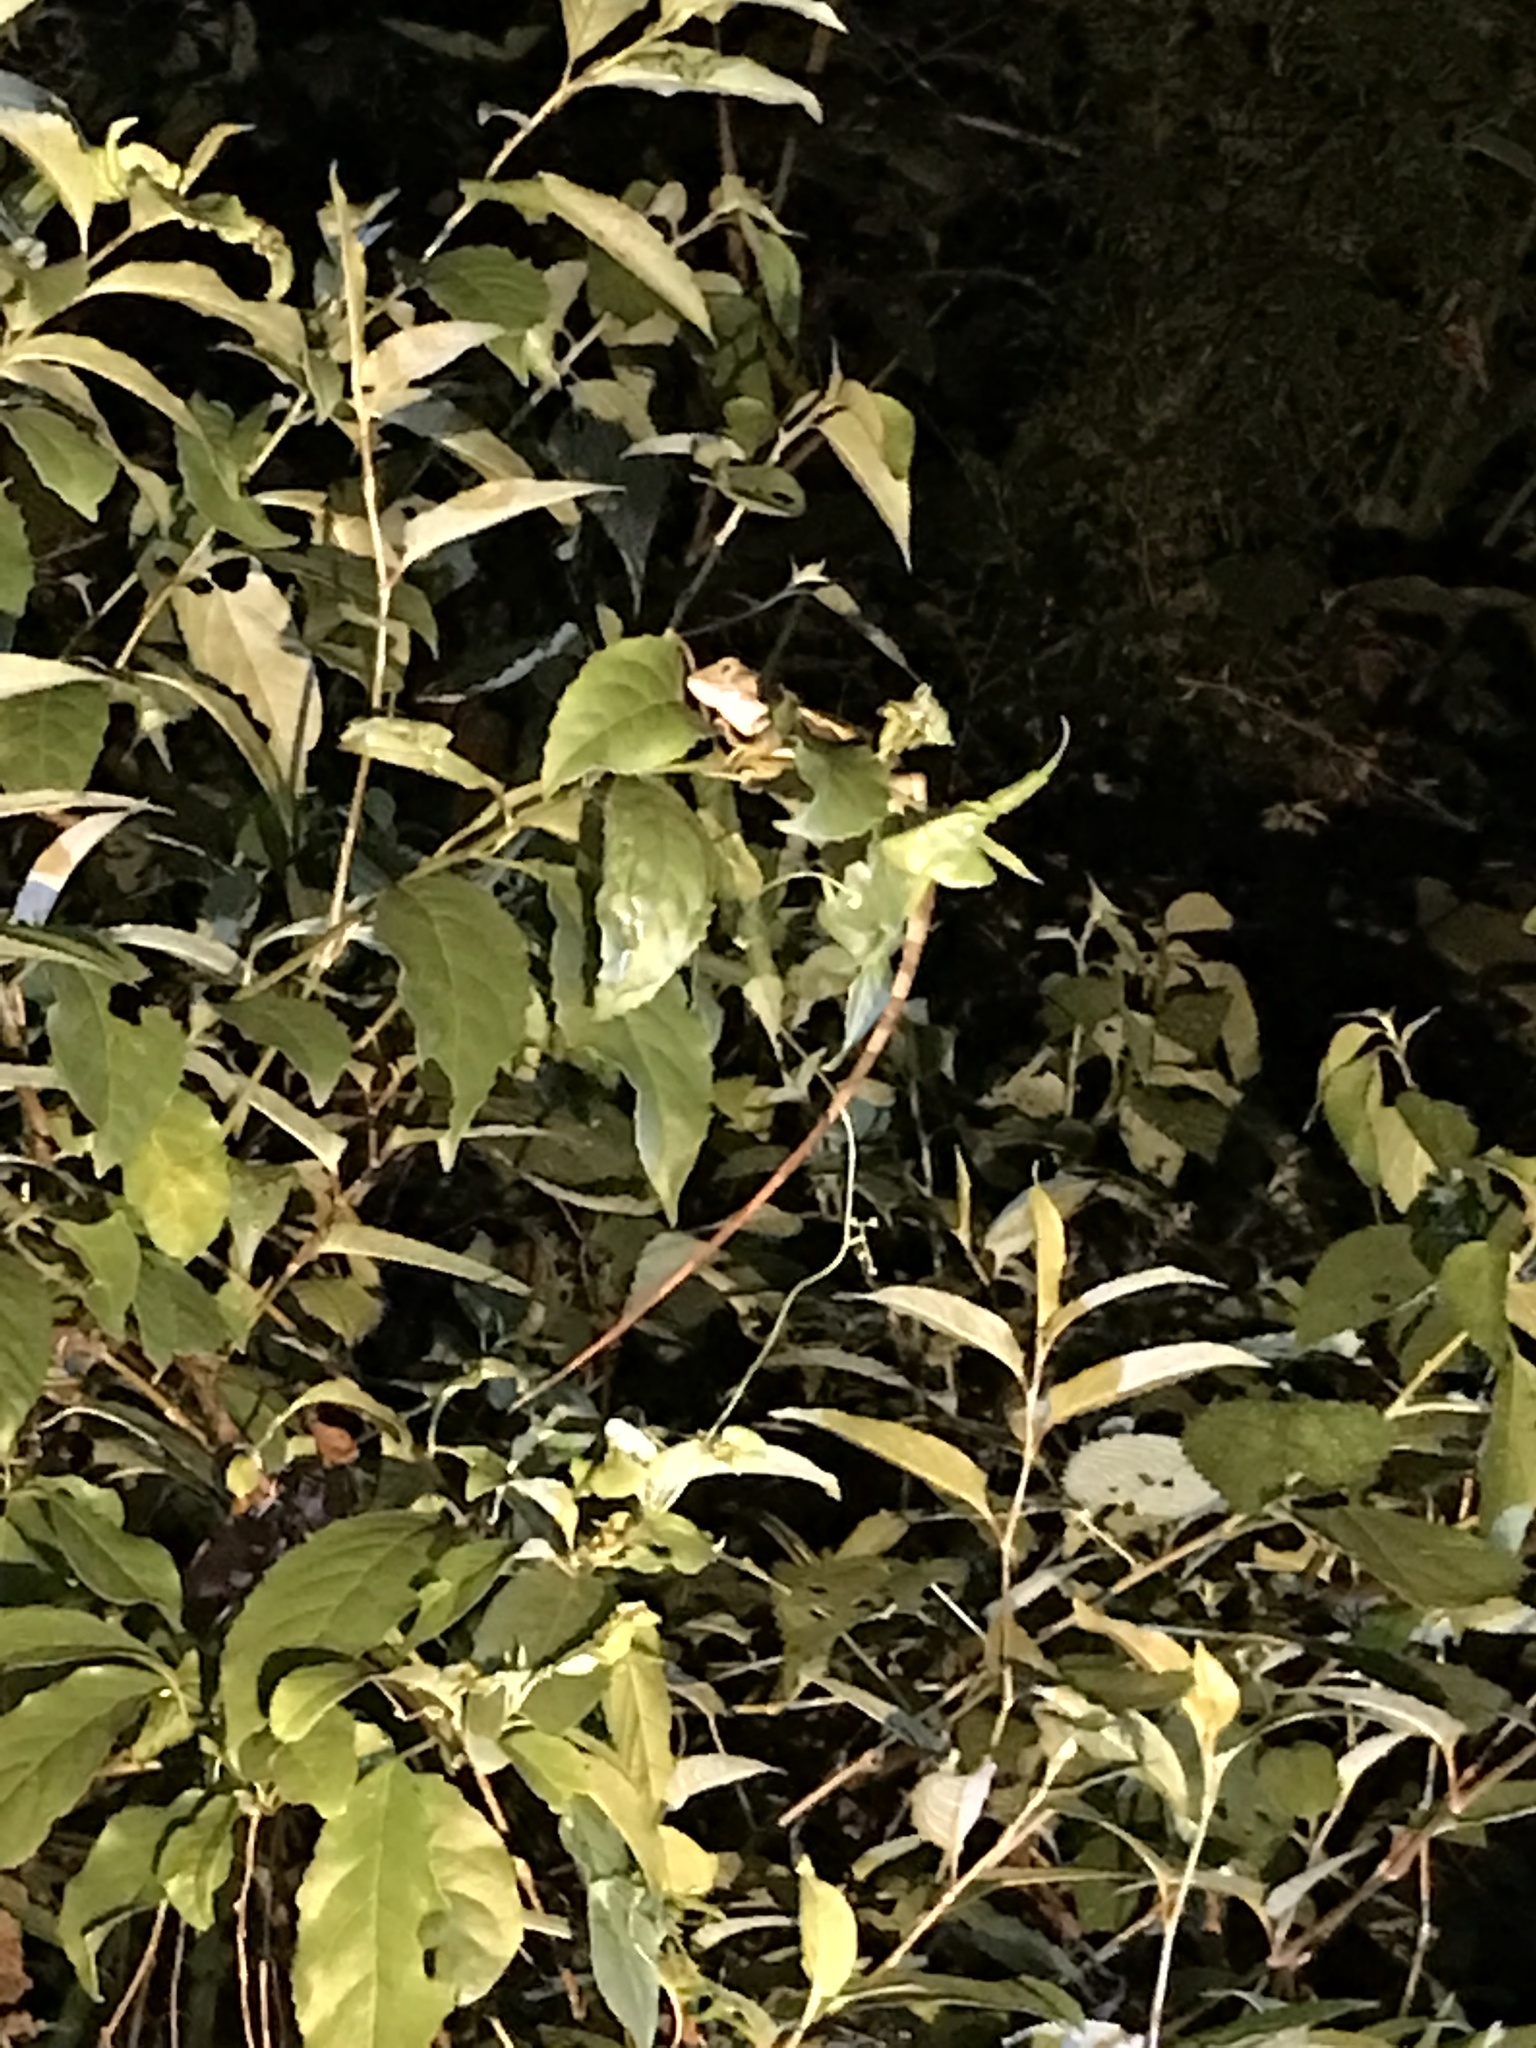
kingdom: Animalia
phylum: Chordata
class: Squamata
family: Agamidae
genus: Diploderma
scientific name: Diploderma swinhonis
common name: Taiwan japalure
